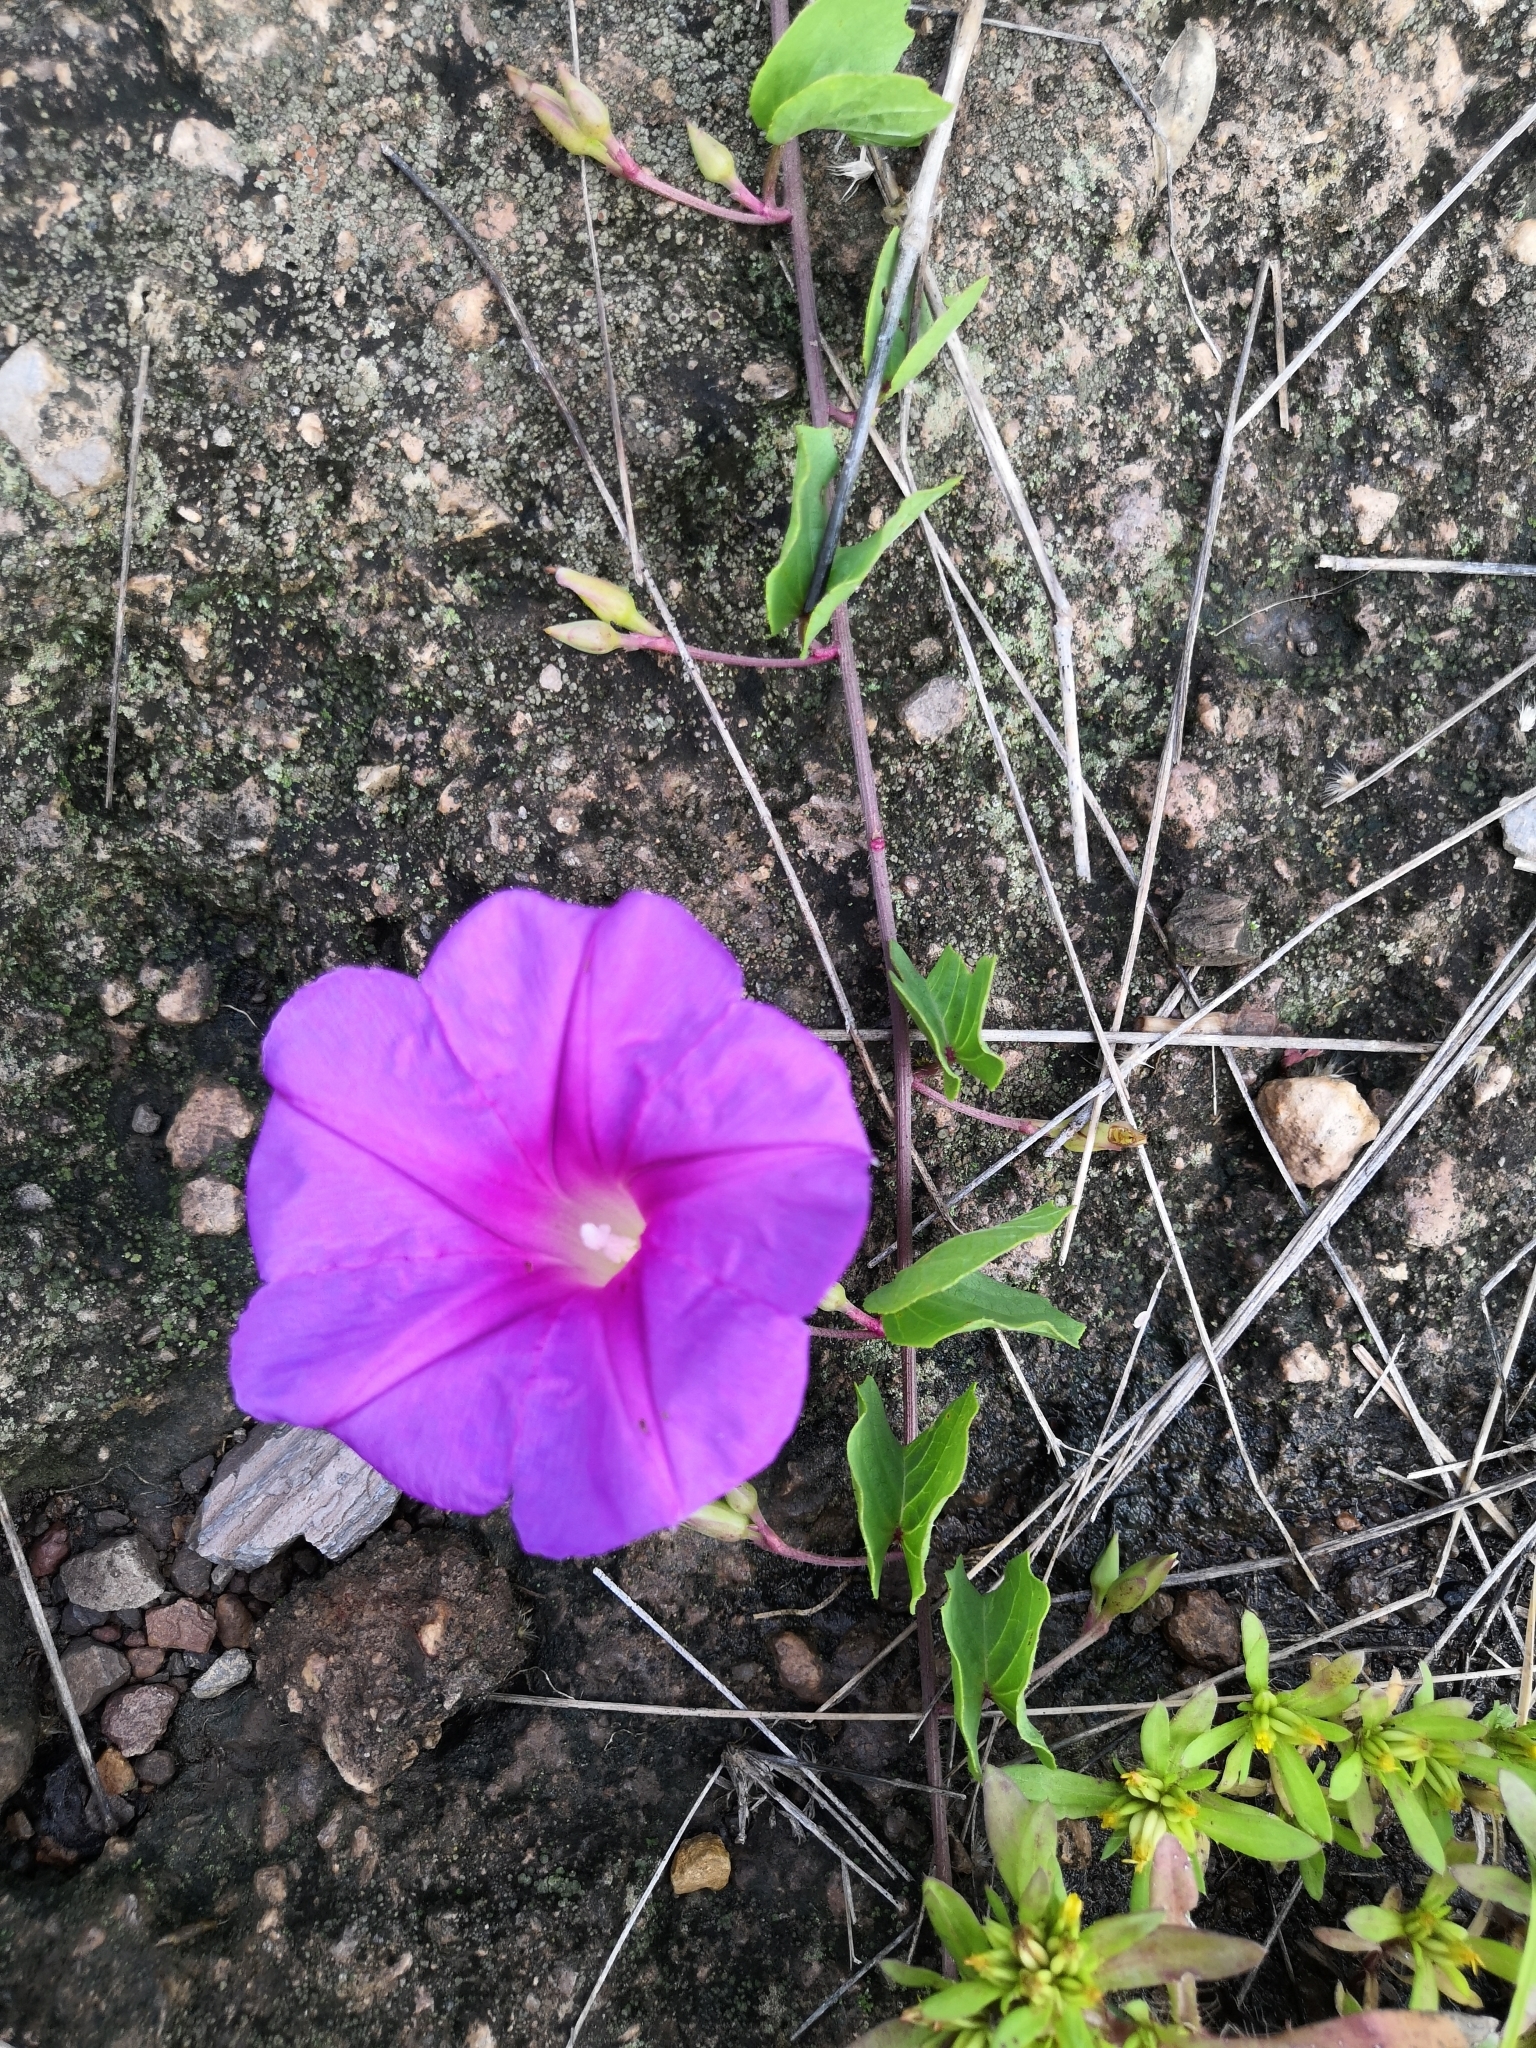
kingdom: Plantae
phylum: Tracheophyta
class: Magnoliopsida
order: Solanales
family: Convolvulaceae
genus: Ipomoea
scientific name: Ipomoea noctulifolia
